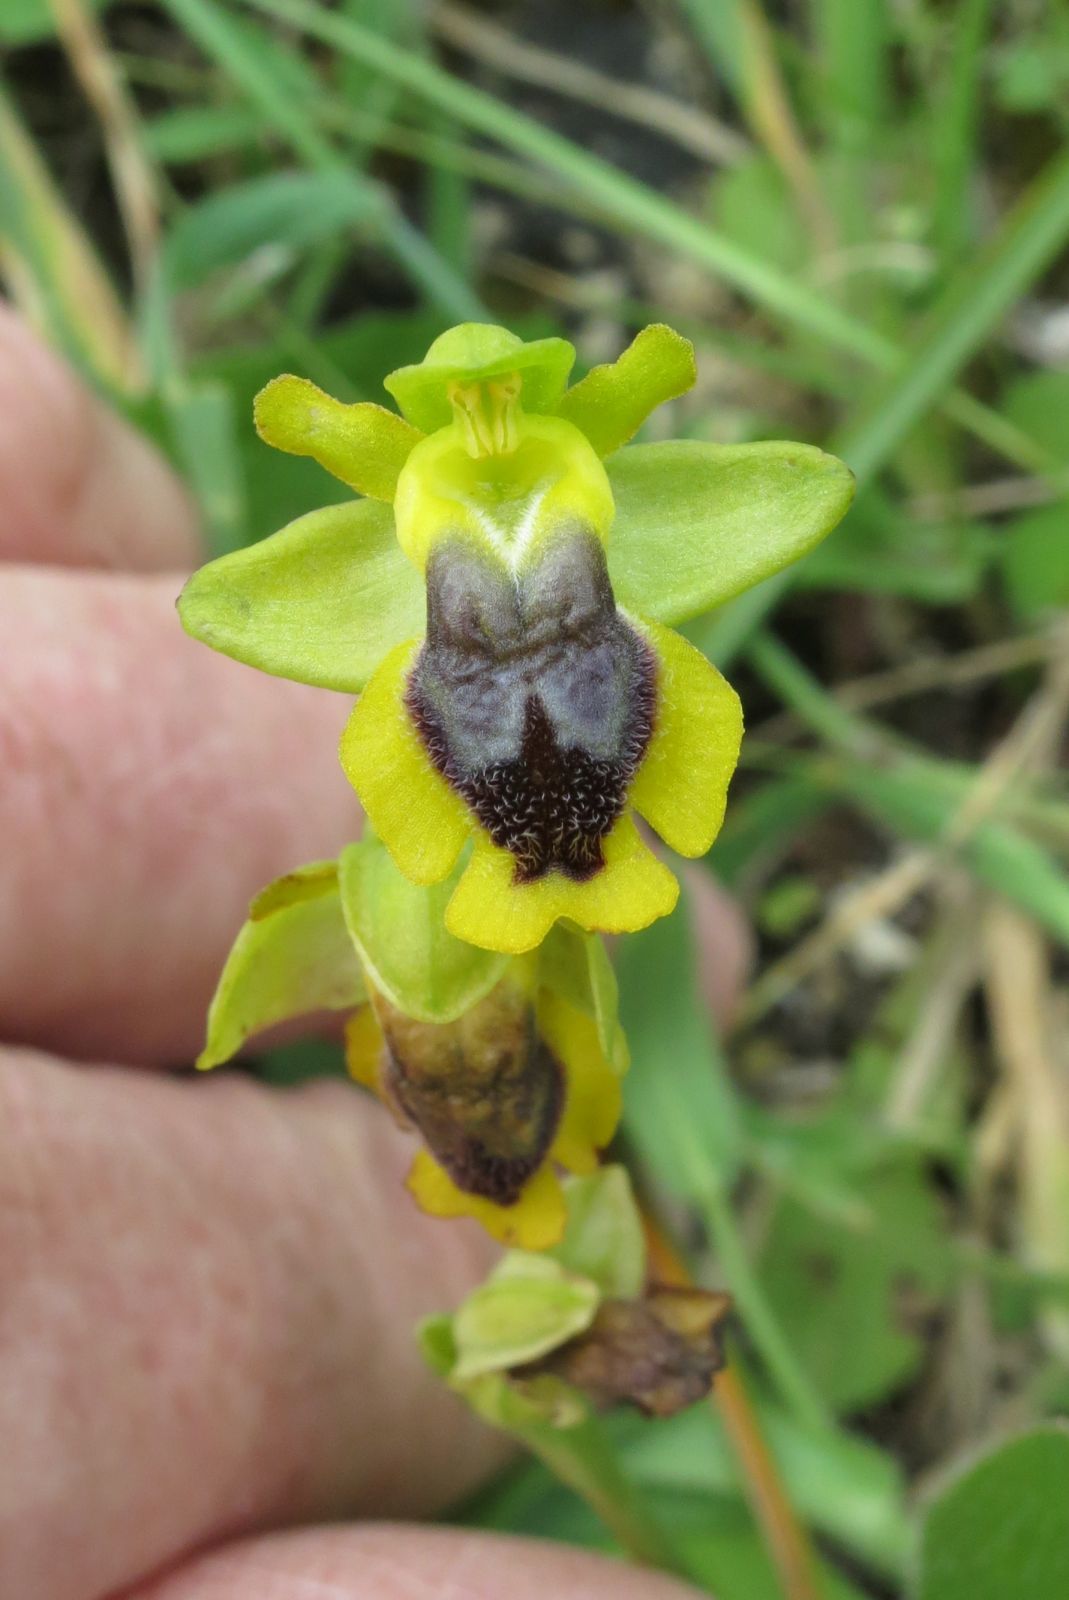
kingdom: Plantae
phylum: Tracheophyta
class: Liliopsida
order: Asparagales
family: Orchidaceae
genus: Ophrys
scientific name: Ophrys lutea
